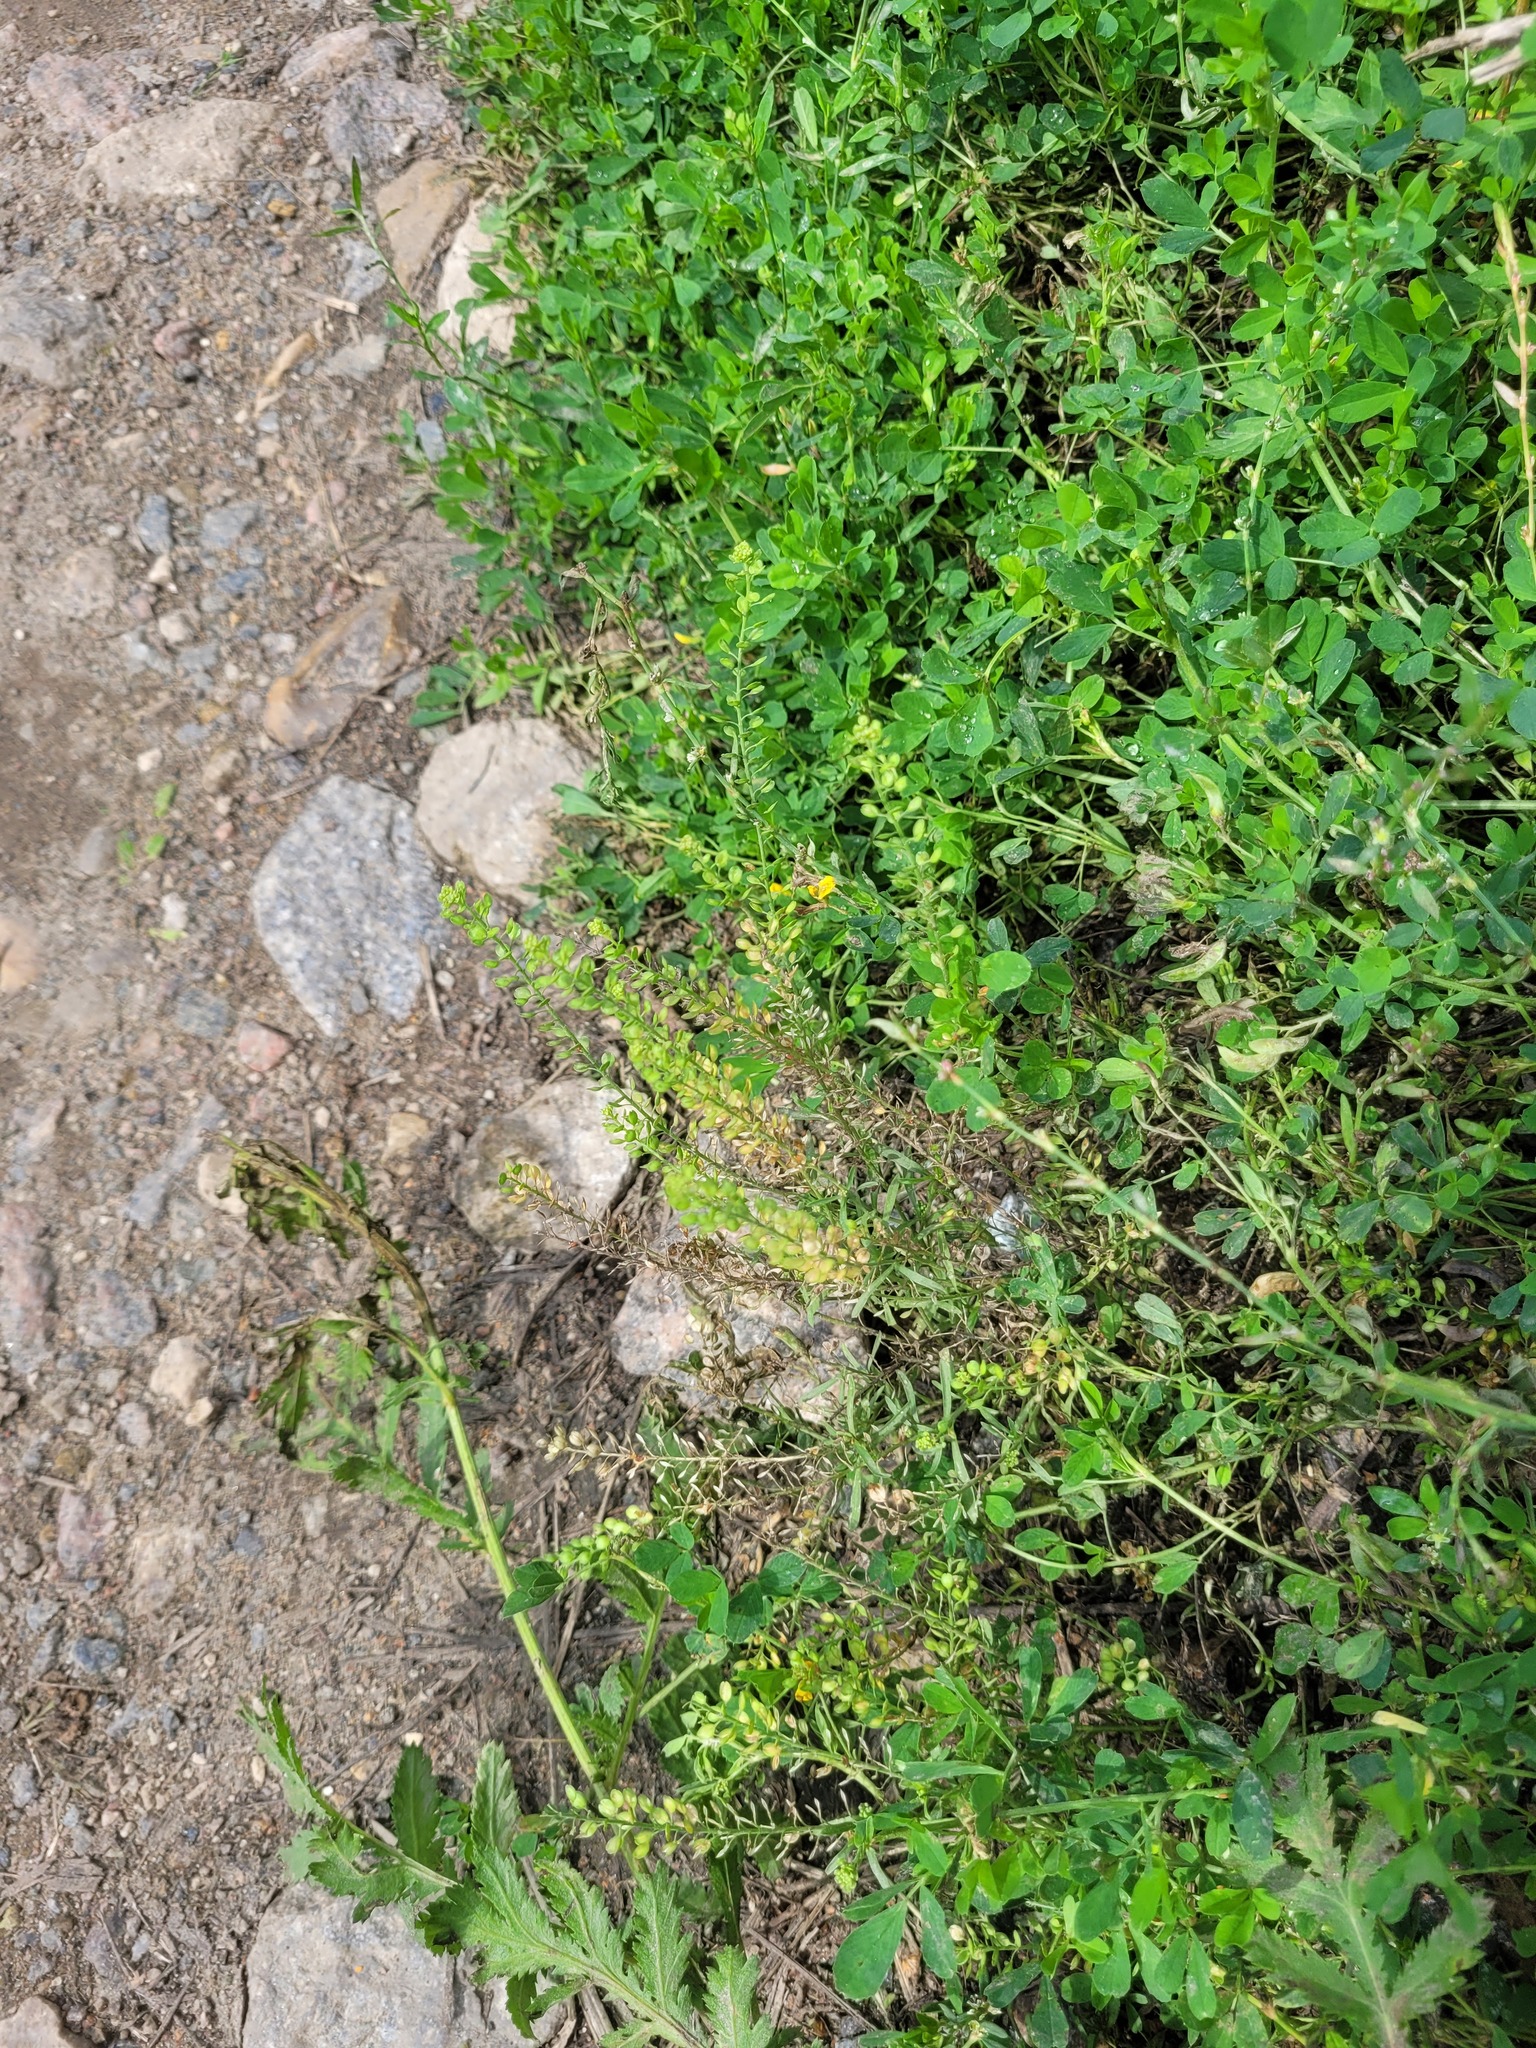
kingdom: Plantae
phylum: Tracheophyta
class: Magnoliopsida
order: Brassicales
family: Brassicaceae
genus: Lepidium
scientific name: Lepidium densiflorum
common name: Miner's pepperwort
